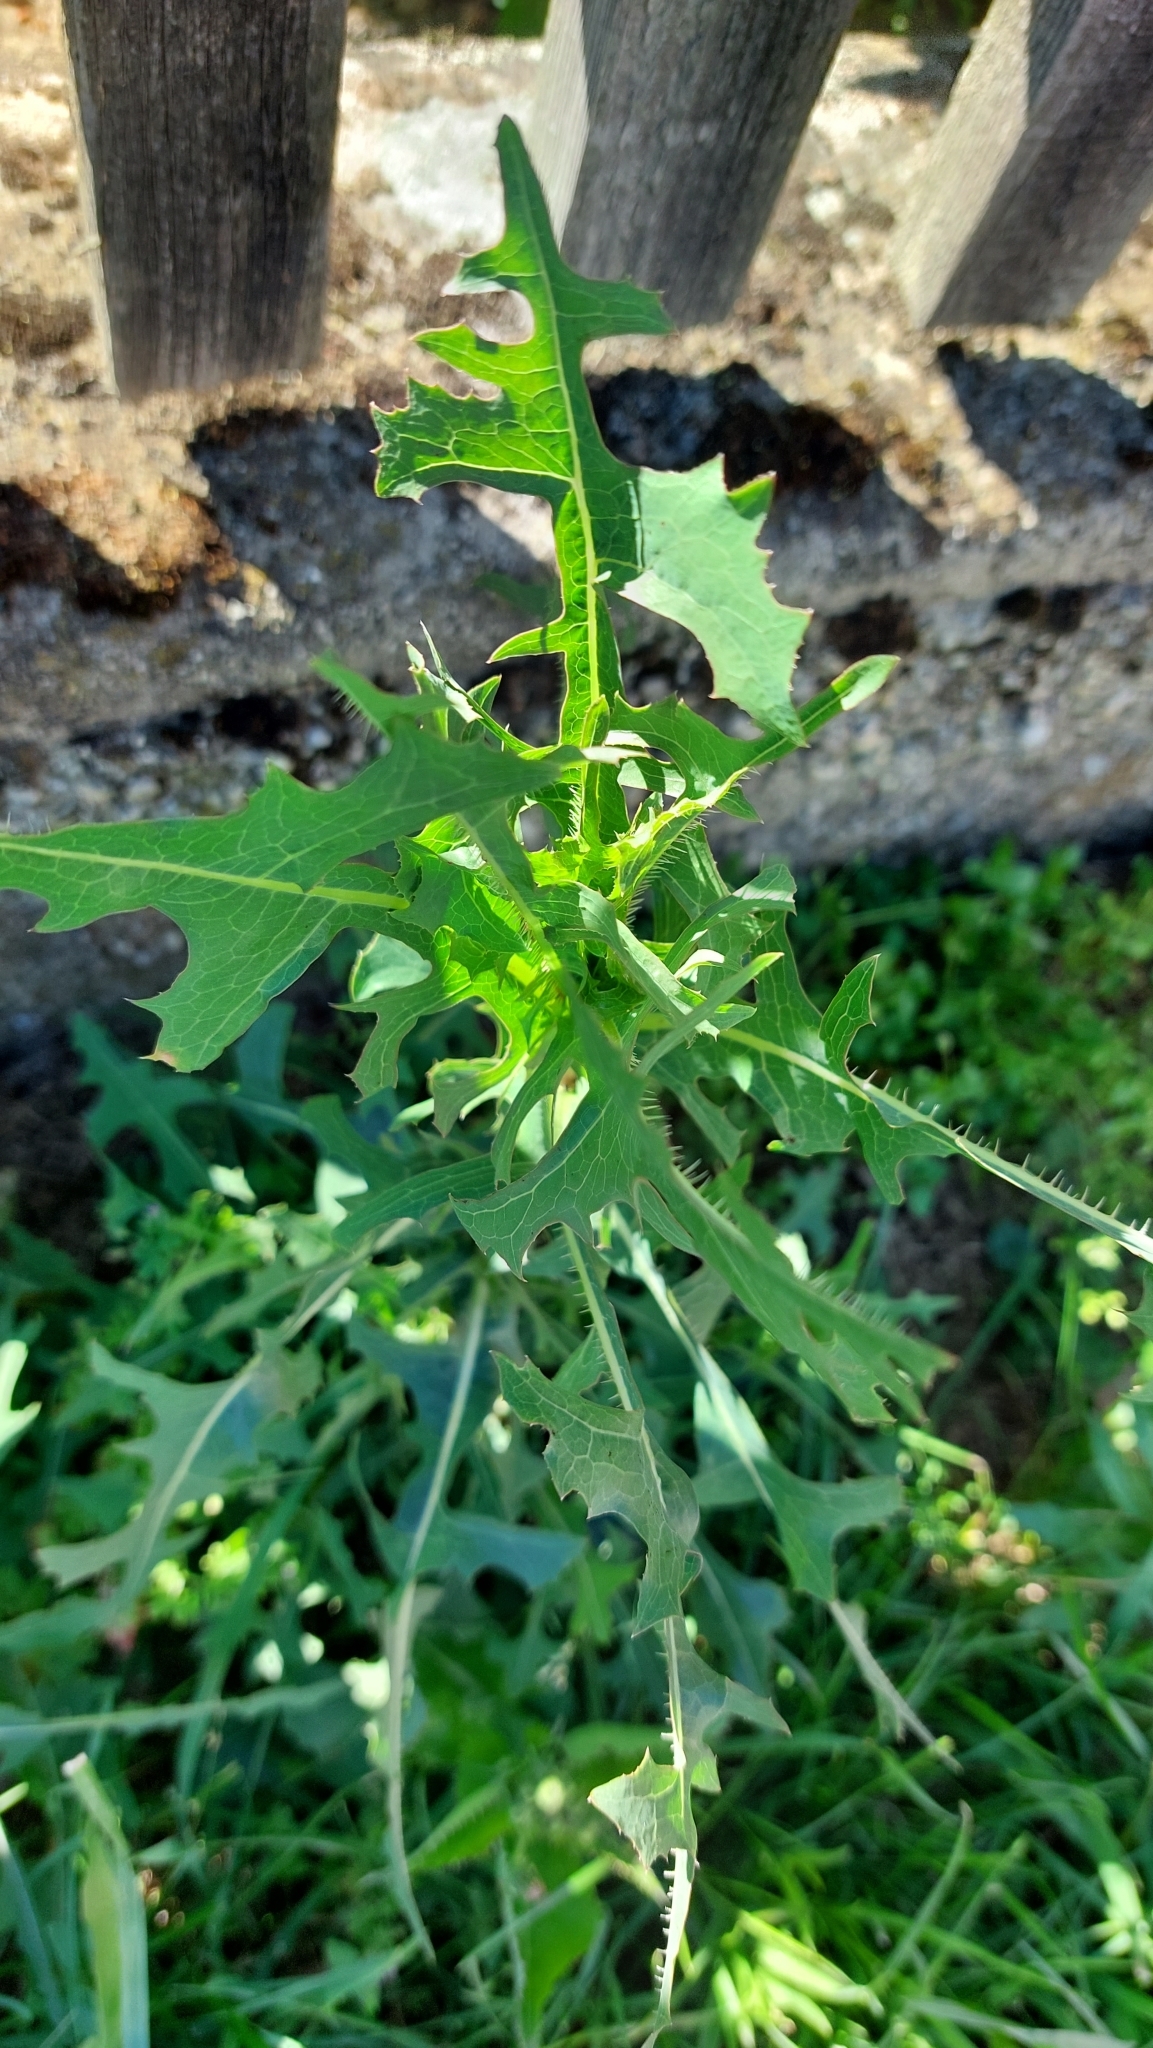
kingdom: Plantae
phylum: Tracheophyta
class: Magnoliopsida
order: Asterales
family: Asteraceae
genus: Lactuca
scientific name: Lactuca serriola
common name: Prickly lettuce
